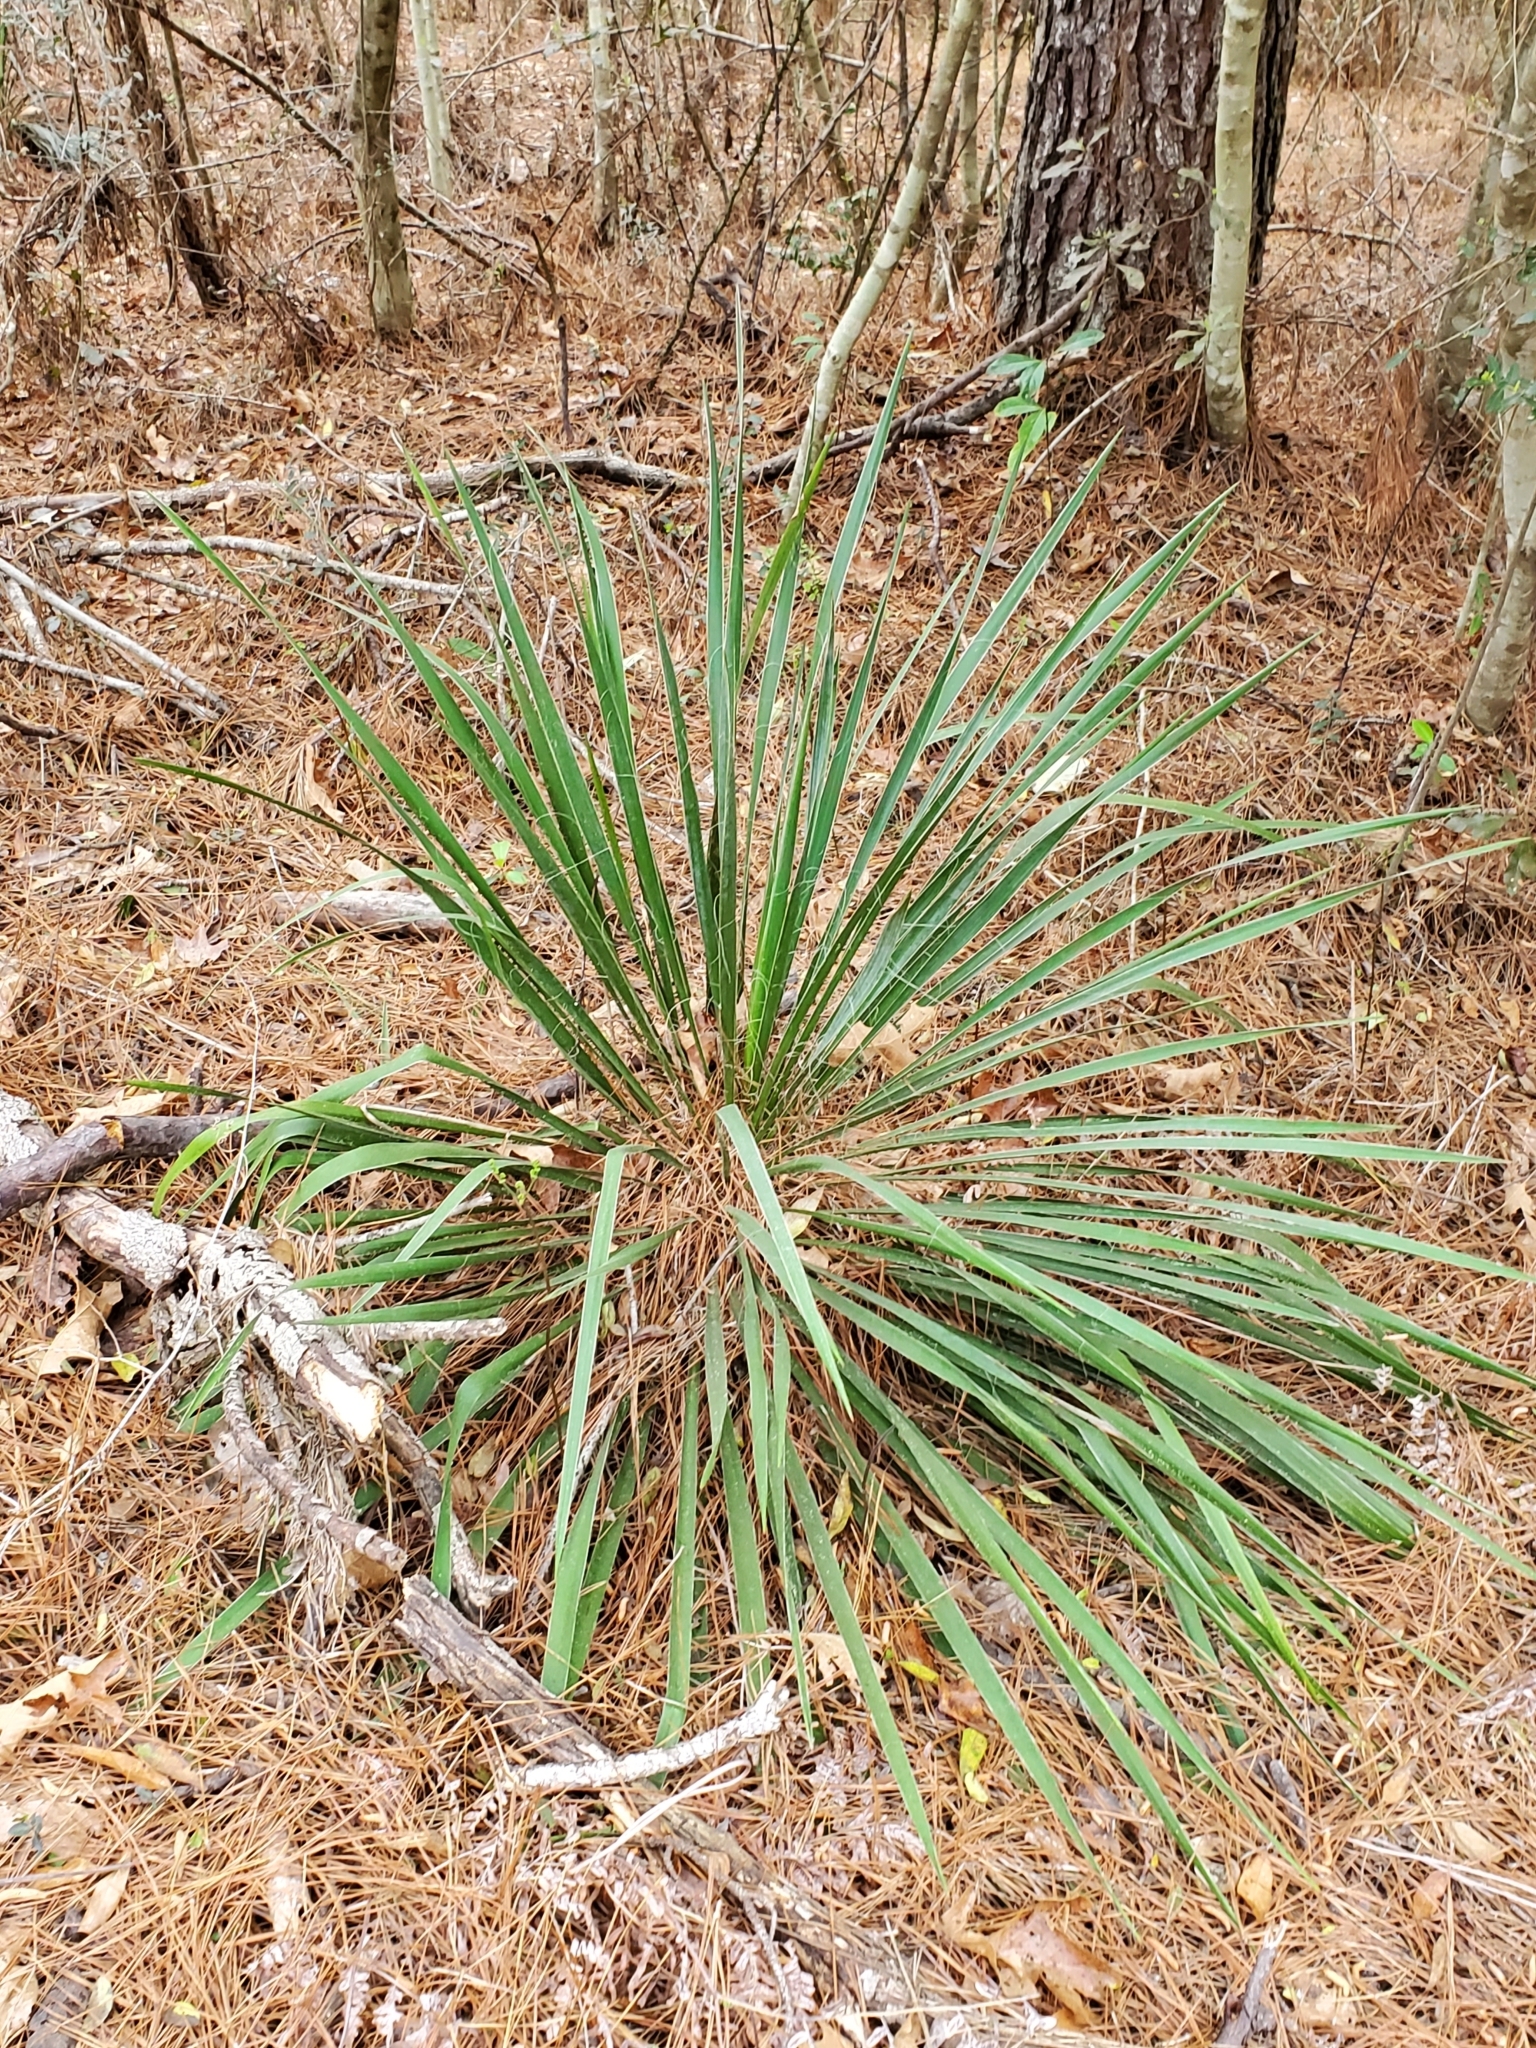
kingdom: Plantae
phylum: Tracheophyta
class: Liliopsida
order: Asparagales
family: Asparagaceae
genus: Yucca
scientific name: Yucca flaccida
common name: Adam's-needle
